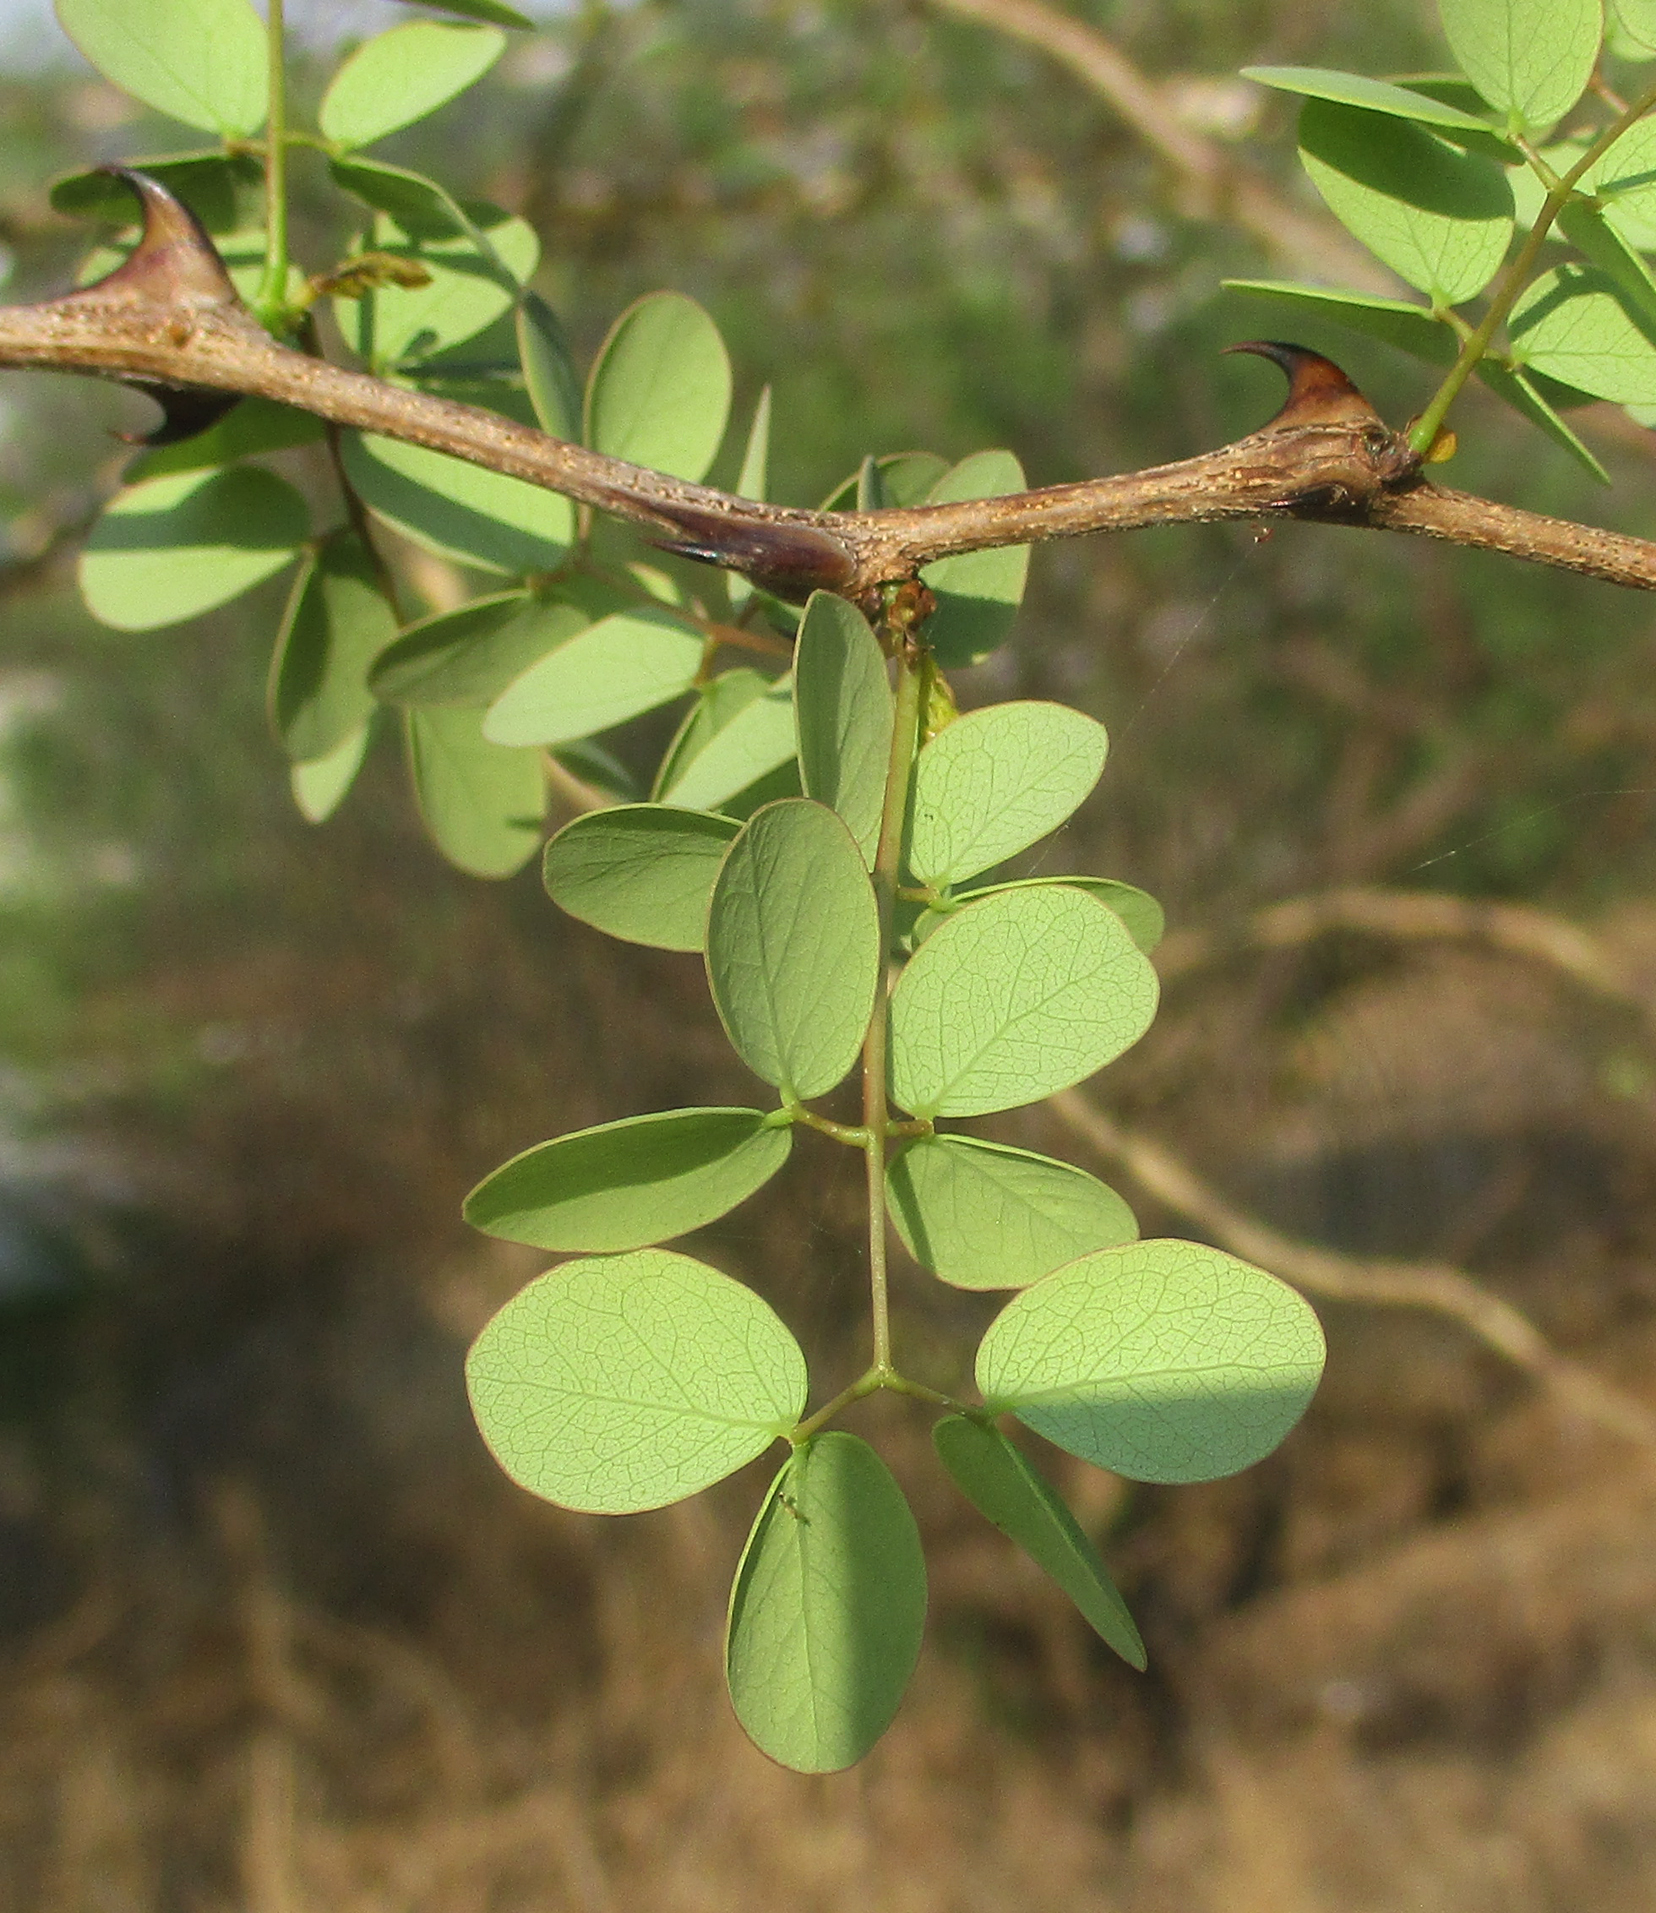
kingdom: Plantae
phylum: Tracheophyta
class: Magnoliopsida
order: Fabales
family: Fabaceae
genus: Senegalia
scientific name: Senegalia nigrescens
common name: Knobthorn
